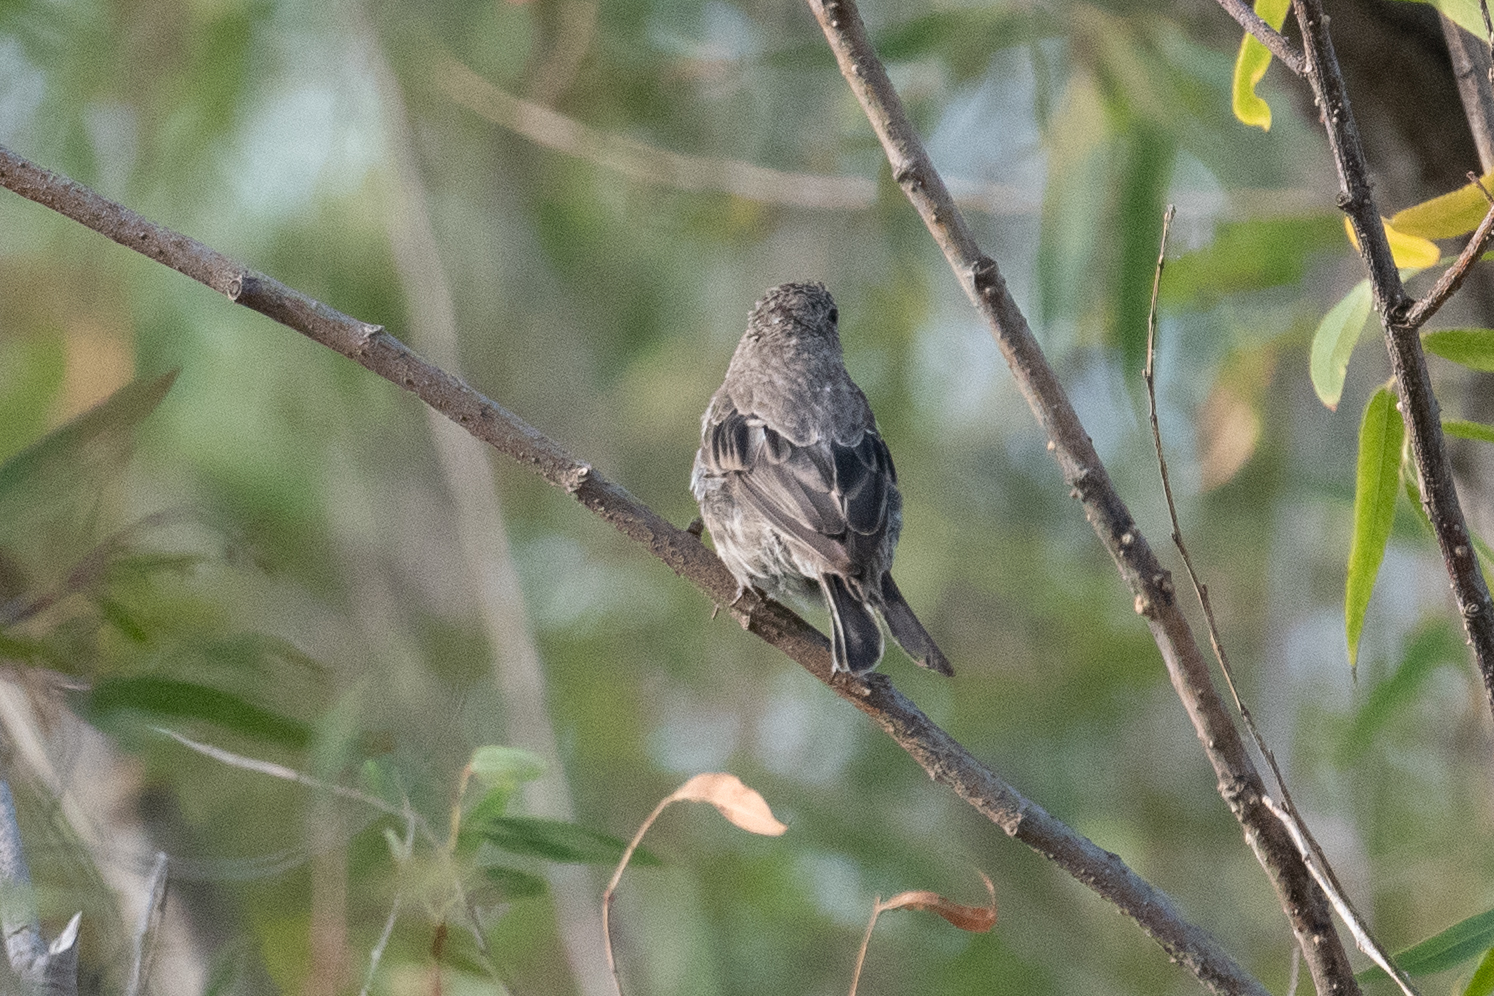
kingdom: Animalia
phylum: Chordata
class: Aves
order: Passeriformes
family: Fringillidae
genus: Haemorhous
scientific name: Haemorhous mexicanus
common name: House finch
